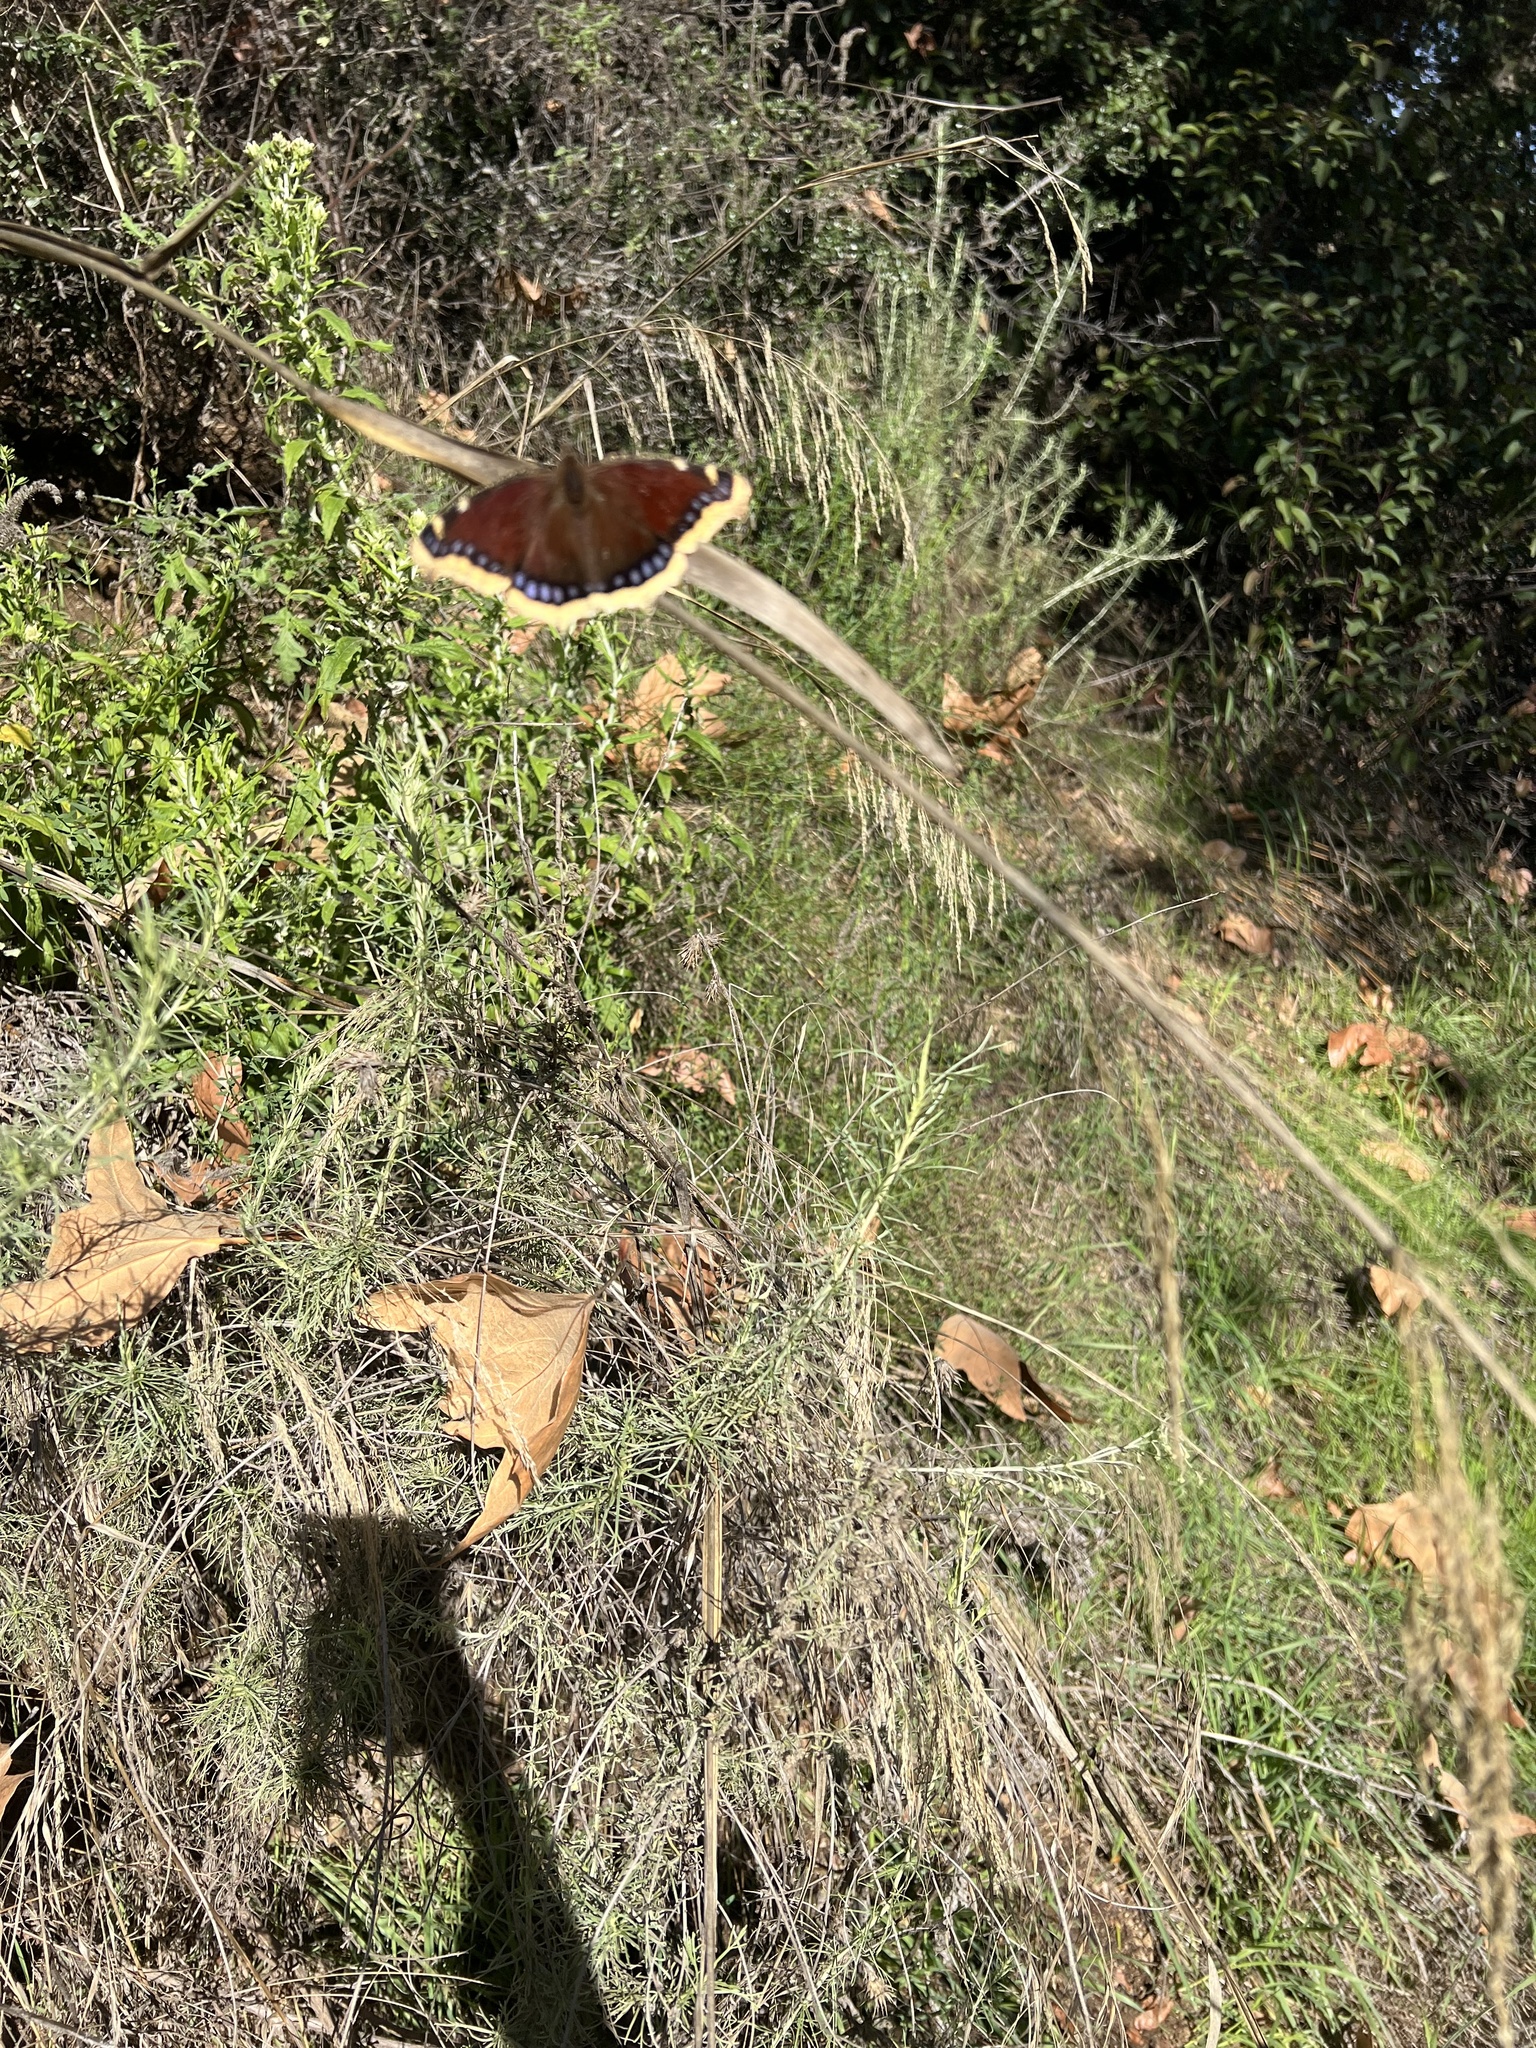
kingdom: Animalia
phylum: Arthropoda
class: Insecta
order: Lepidoptera
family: Nymphalidae
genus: Nymphalis
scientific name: Nymphalis antiopa
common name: Camberwell beauty
